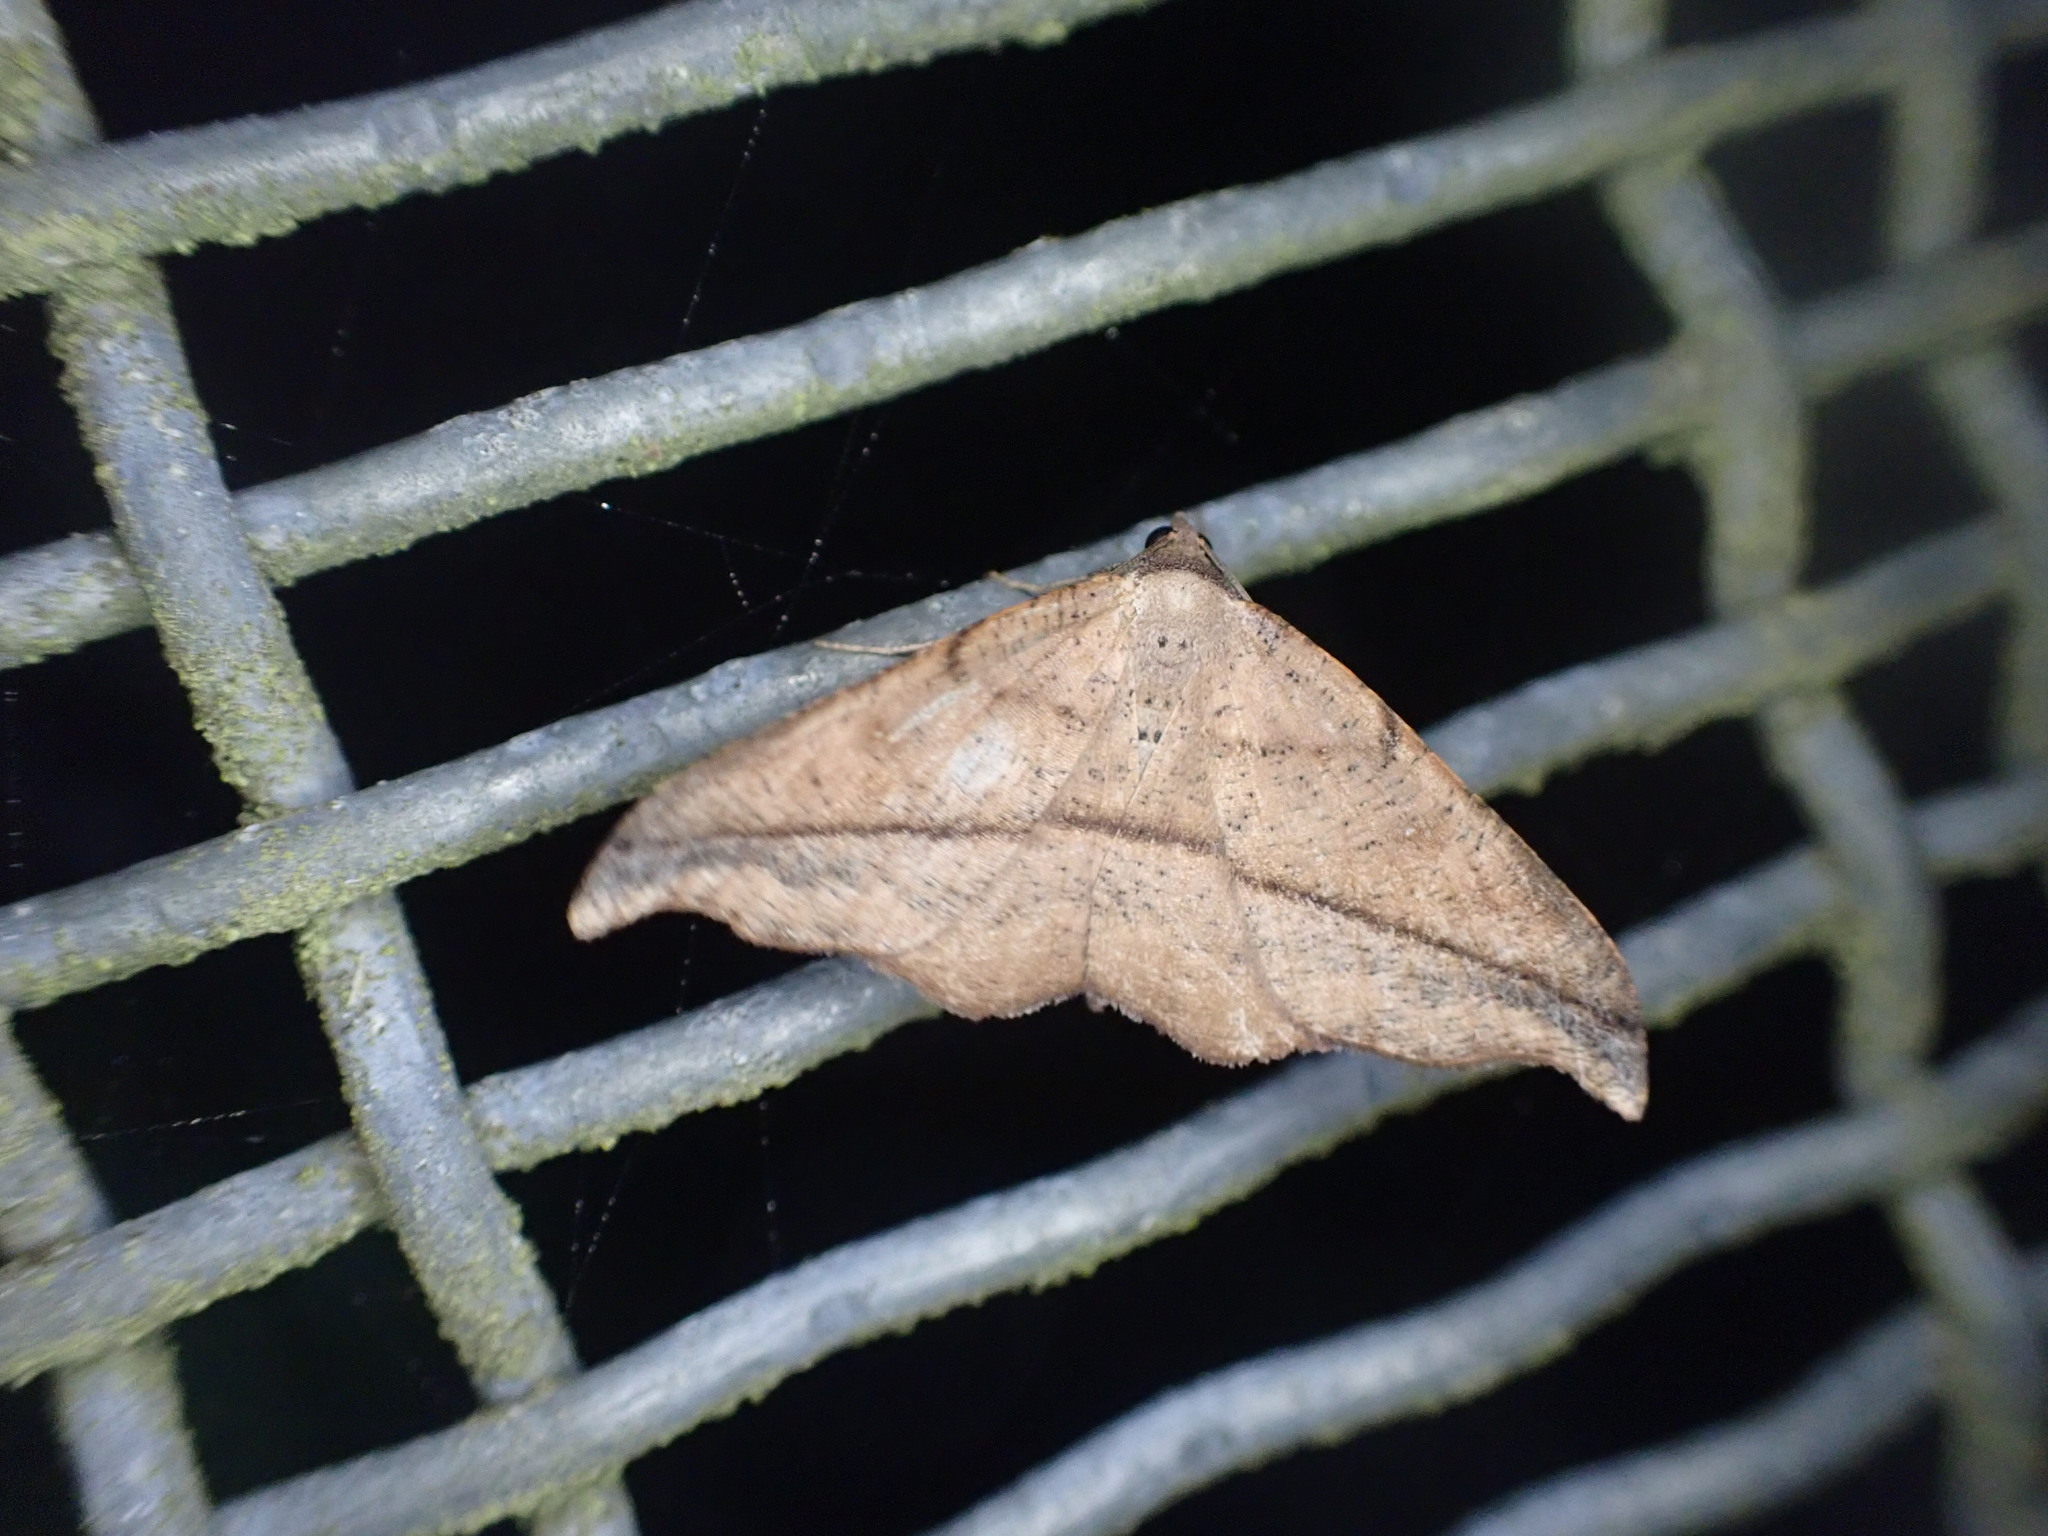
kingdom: Animalia
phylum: Arthropoda
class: Insecta
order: Lepidoptera
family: Geometridae
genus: Sarisa
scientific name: Sarisa muriferata
